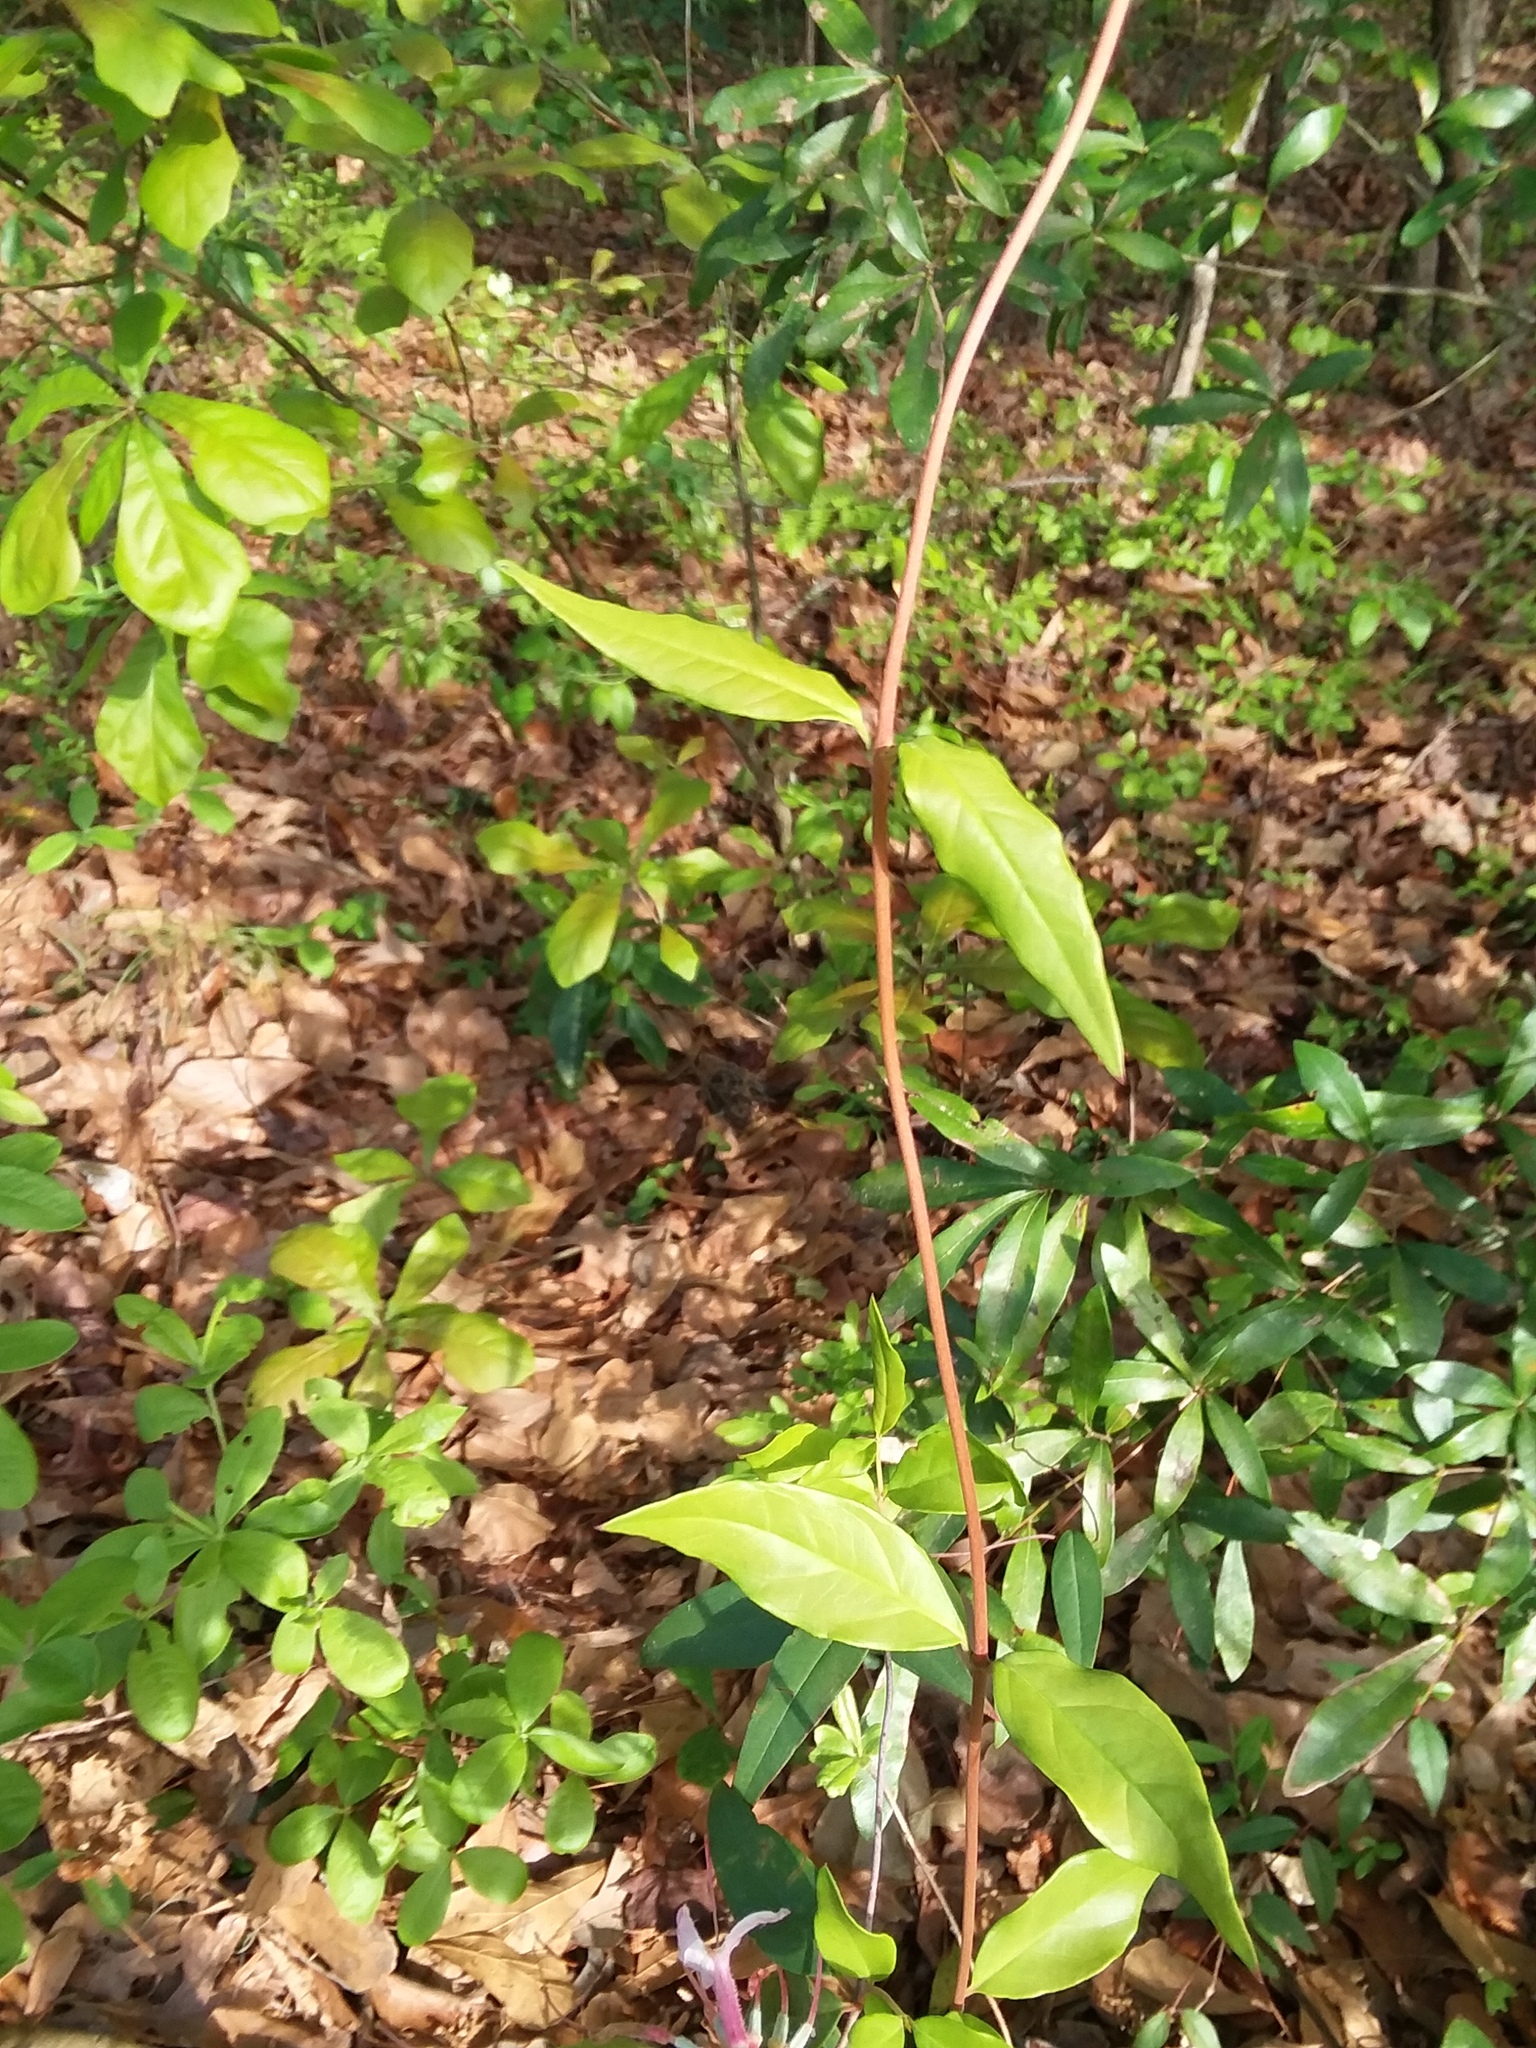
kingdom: Plantae
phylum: Tracheophyta
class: Magnoliopsida
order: Gentianales
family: Gelsemiaceae
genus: Gelsemium
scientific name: Gelsemium sempervirens
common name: Carolina-jasmine
